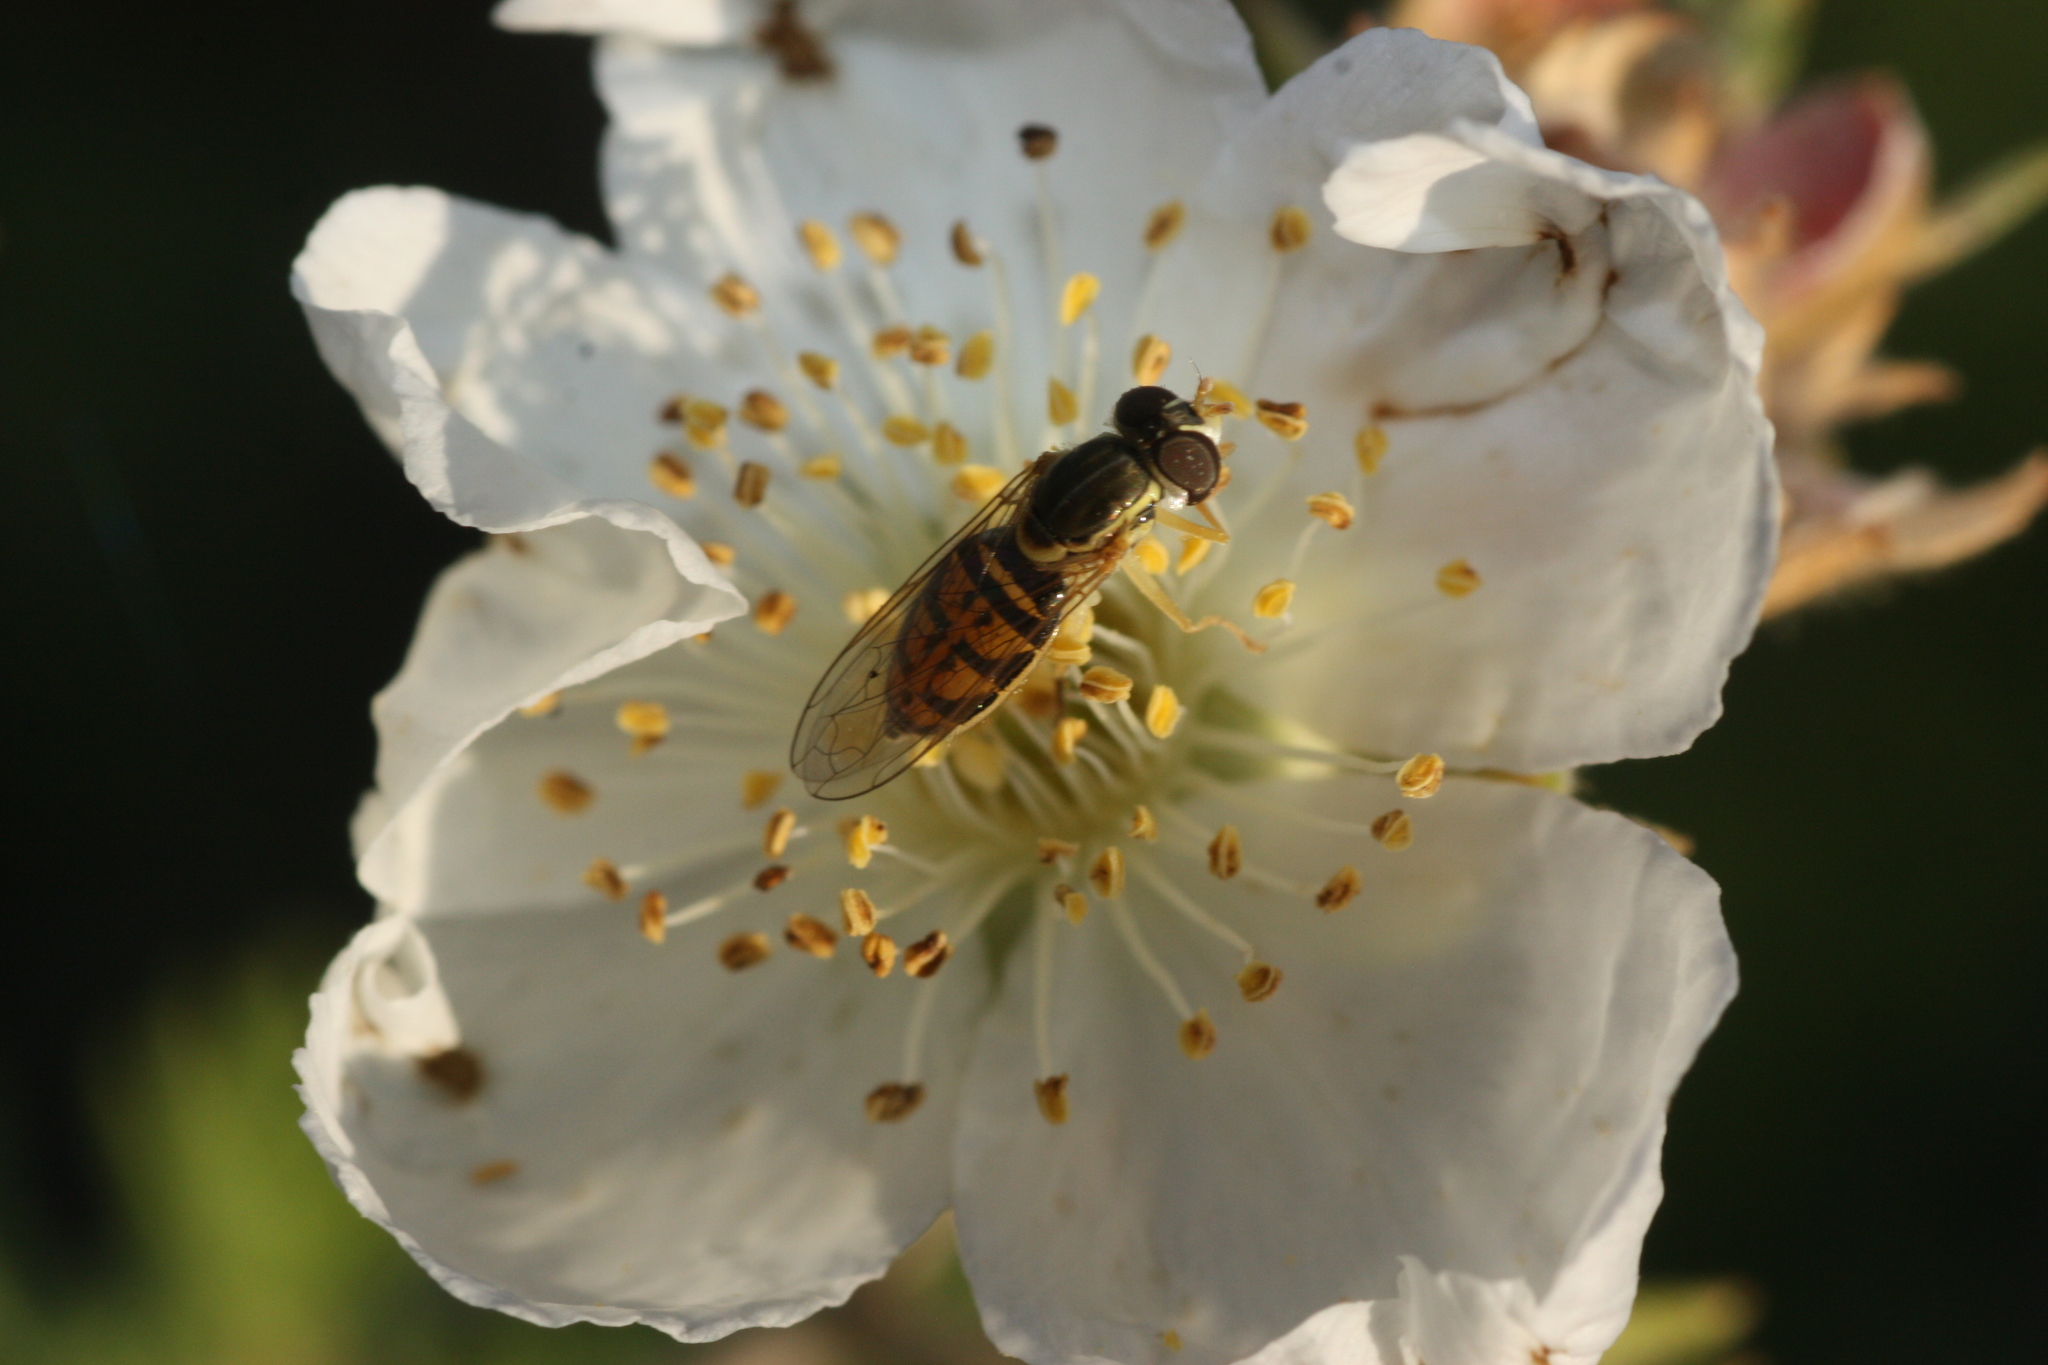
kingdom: Animalia
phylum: Arthropoda
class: Insecta
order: Diptera
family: Syrphidae
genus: Toxomerus
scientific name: Toxomerus marginatus
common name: Syrphid fly
